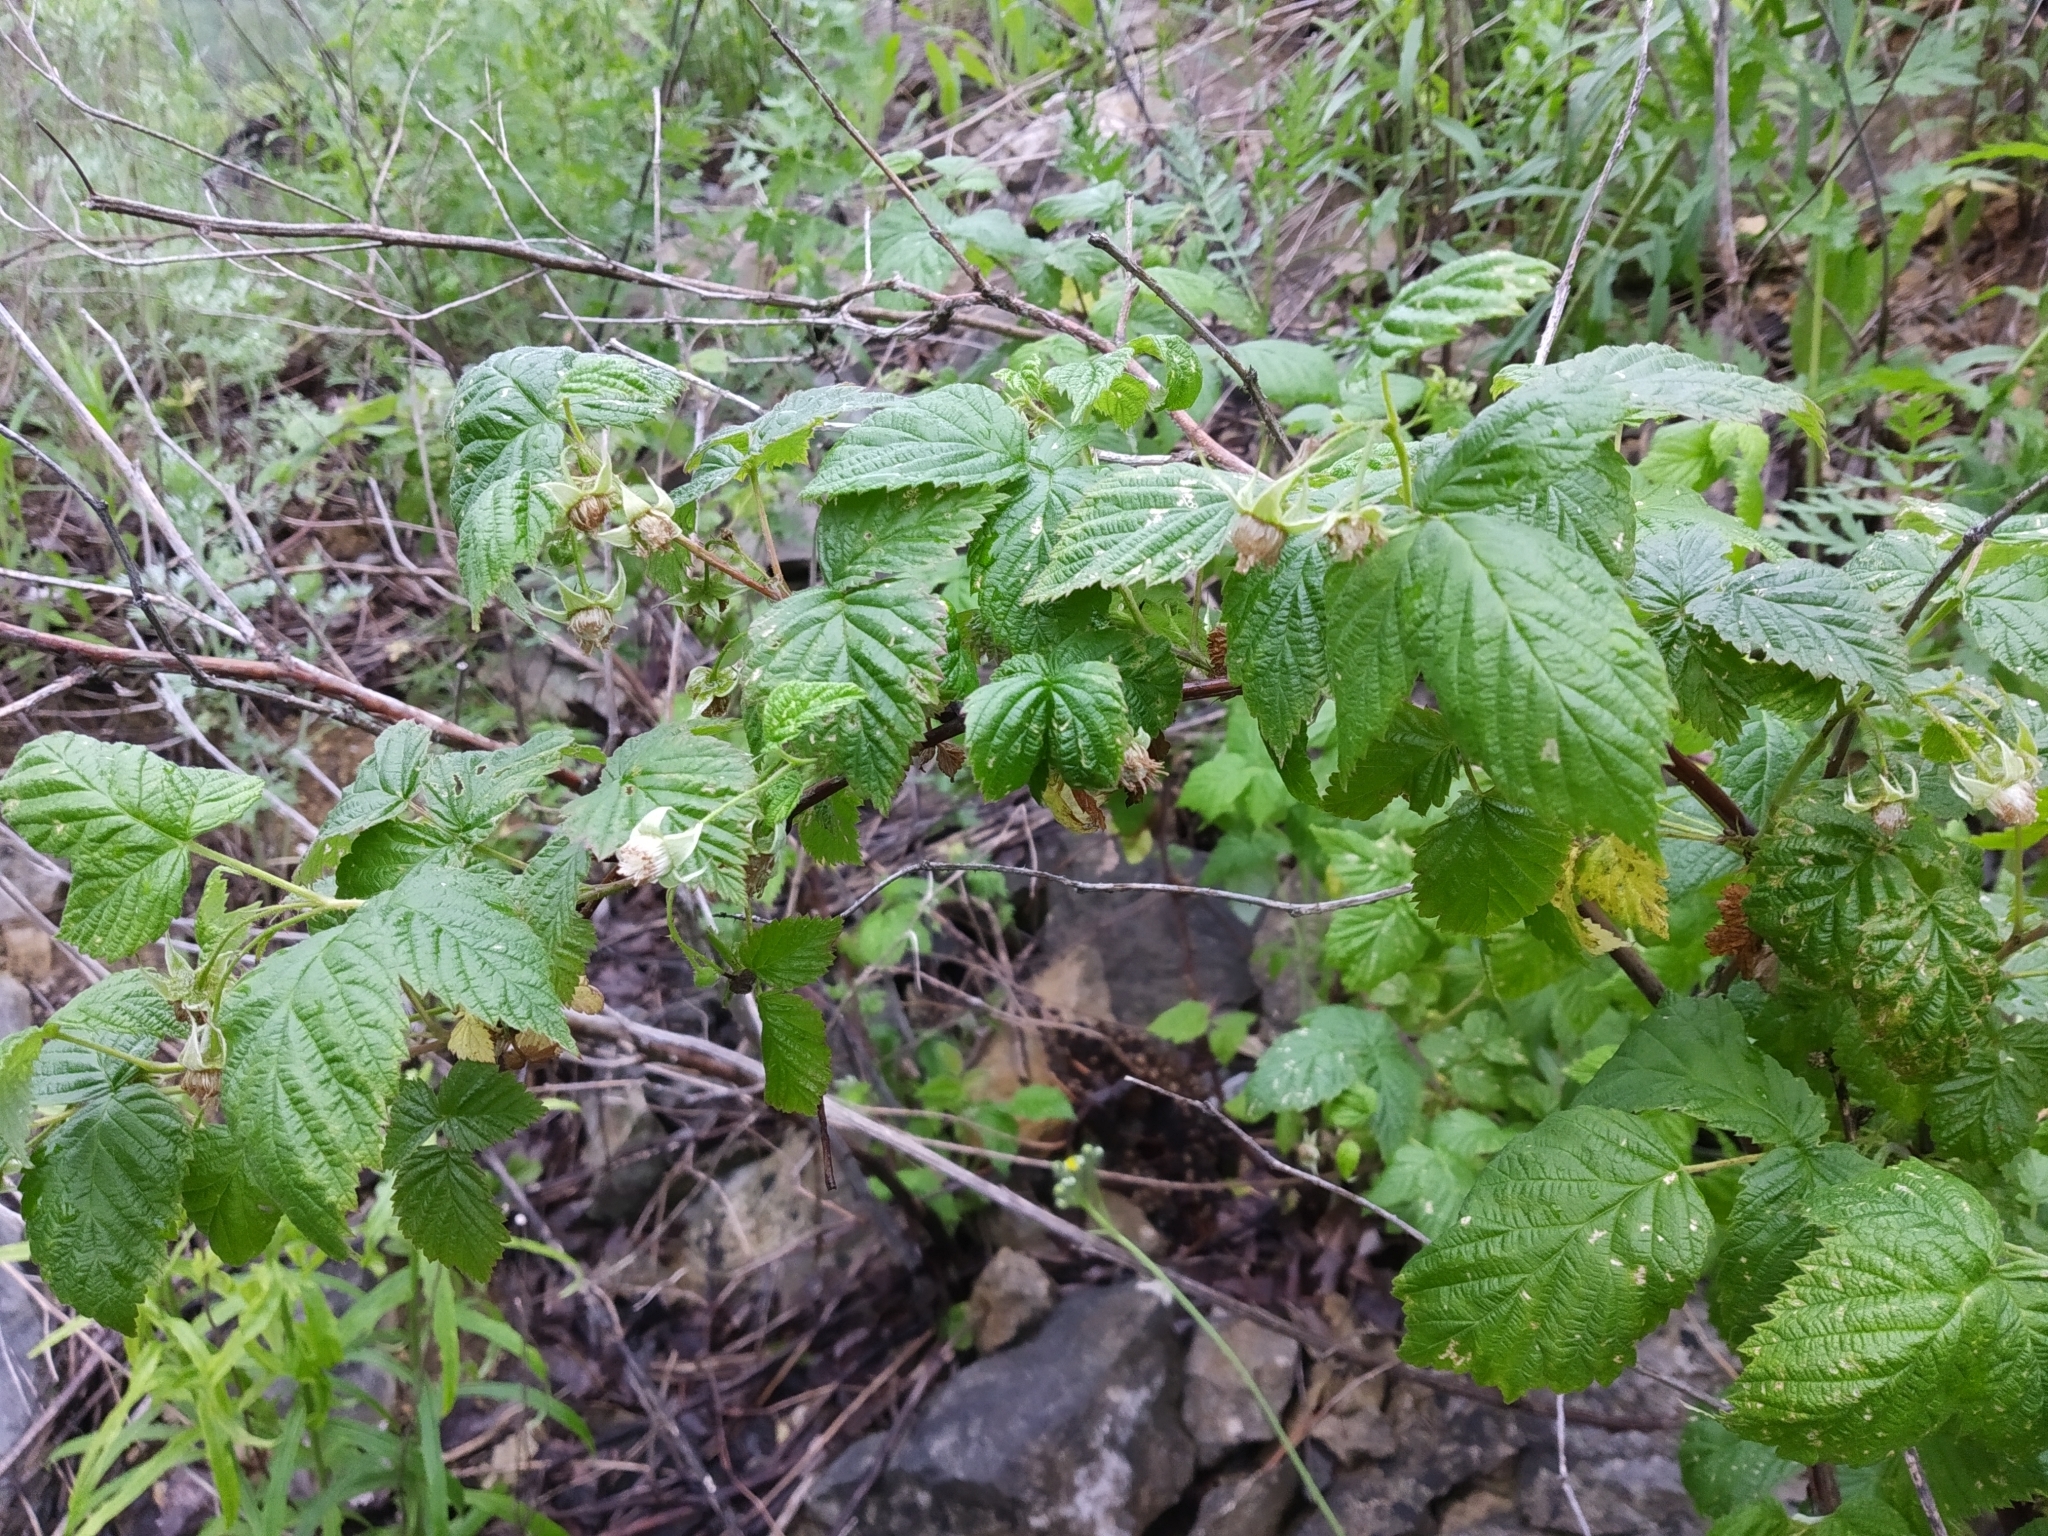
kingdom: Plantae
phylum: Tracheophyta
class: Magnoliopsida
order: Rosales
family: Rosaceae
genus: Rubus
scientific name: Rubus idaeus
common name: Raspberry
